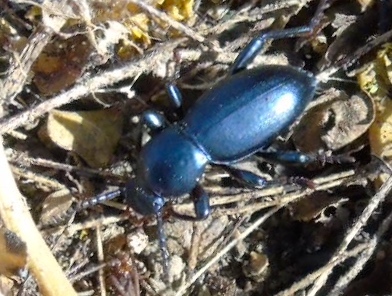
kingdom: Animalia
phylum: Arthropoda
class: Insecta
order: Coleoptera
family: Tenebrionidae
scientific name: Tenebrionidae
